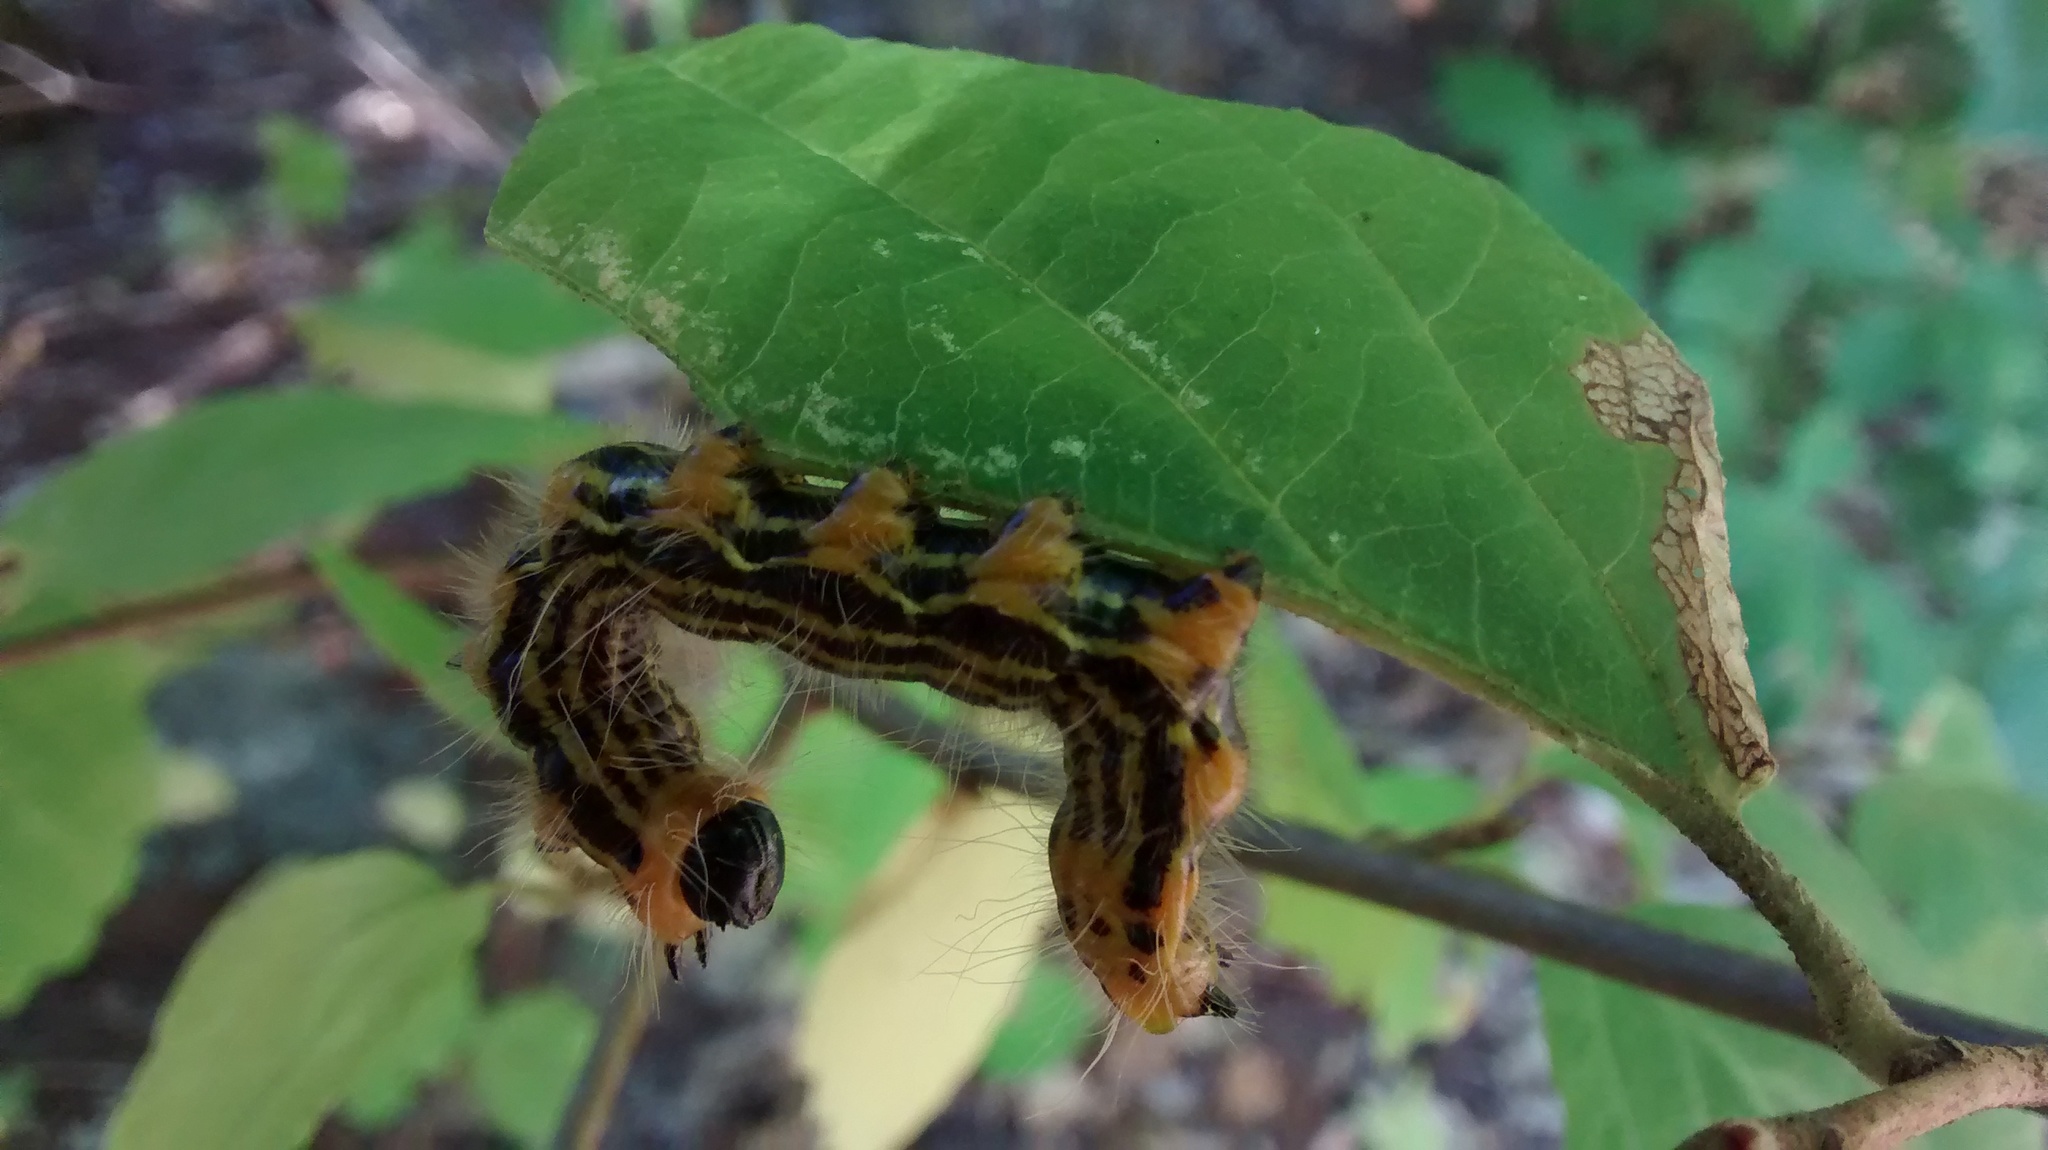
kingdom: Animalia
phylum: Arthropoda
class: Insecta
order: Lepidoptera
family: Notodontidae
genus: Datana
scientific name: Datana drexelii
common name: Drexel's datana
